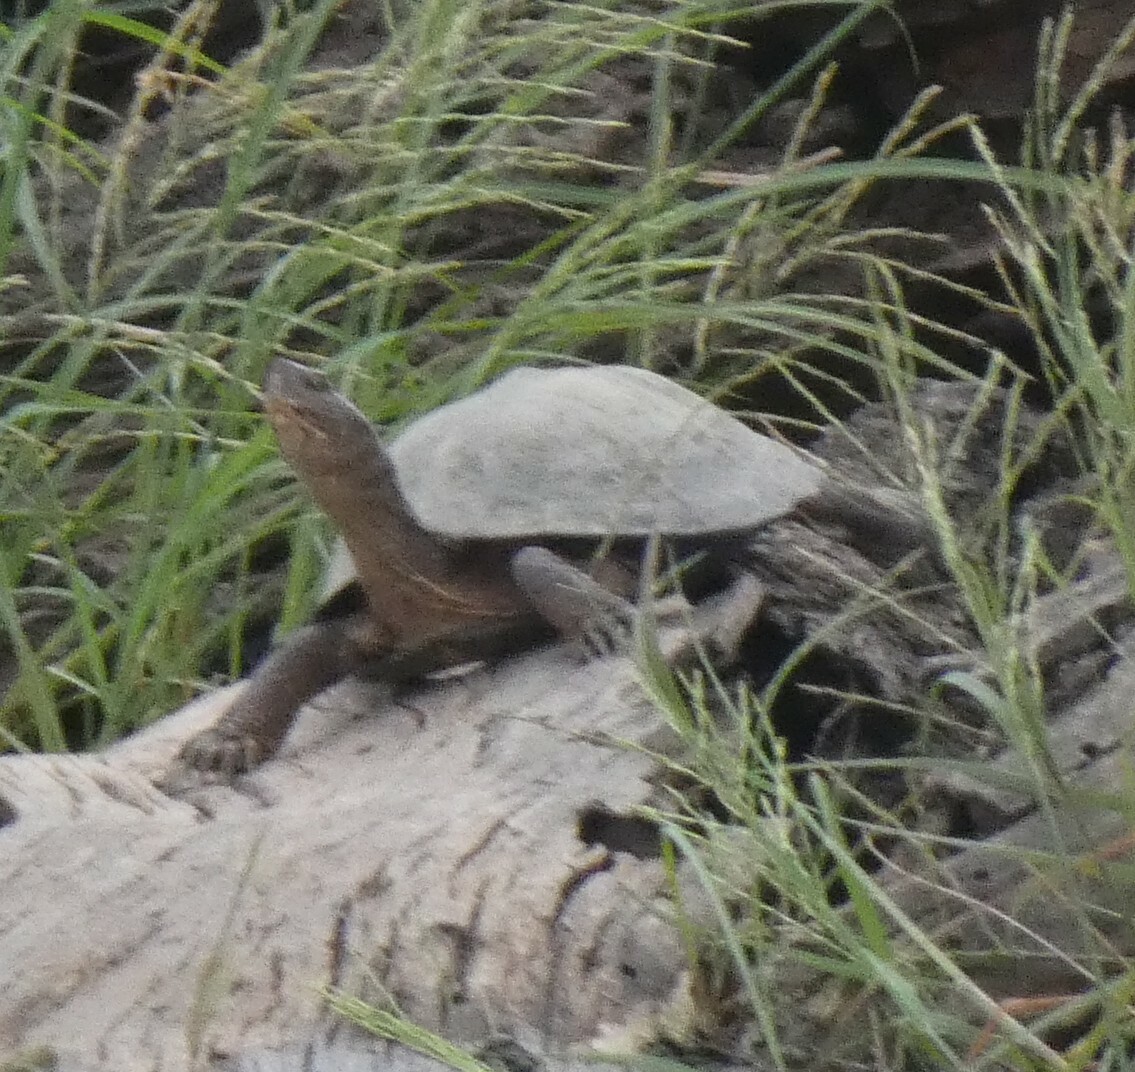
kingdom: Animalia
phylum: Chordata
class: Testudines
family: Pelomedusidae
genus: Pelusios
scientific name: Pelusios sinuatus
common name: Serrated hinged terrapin
